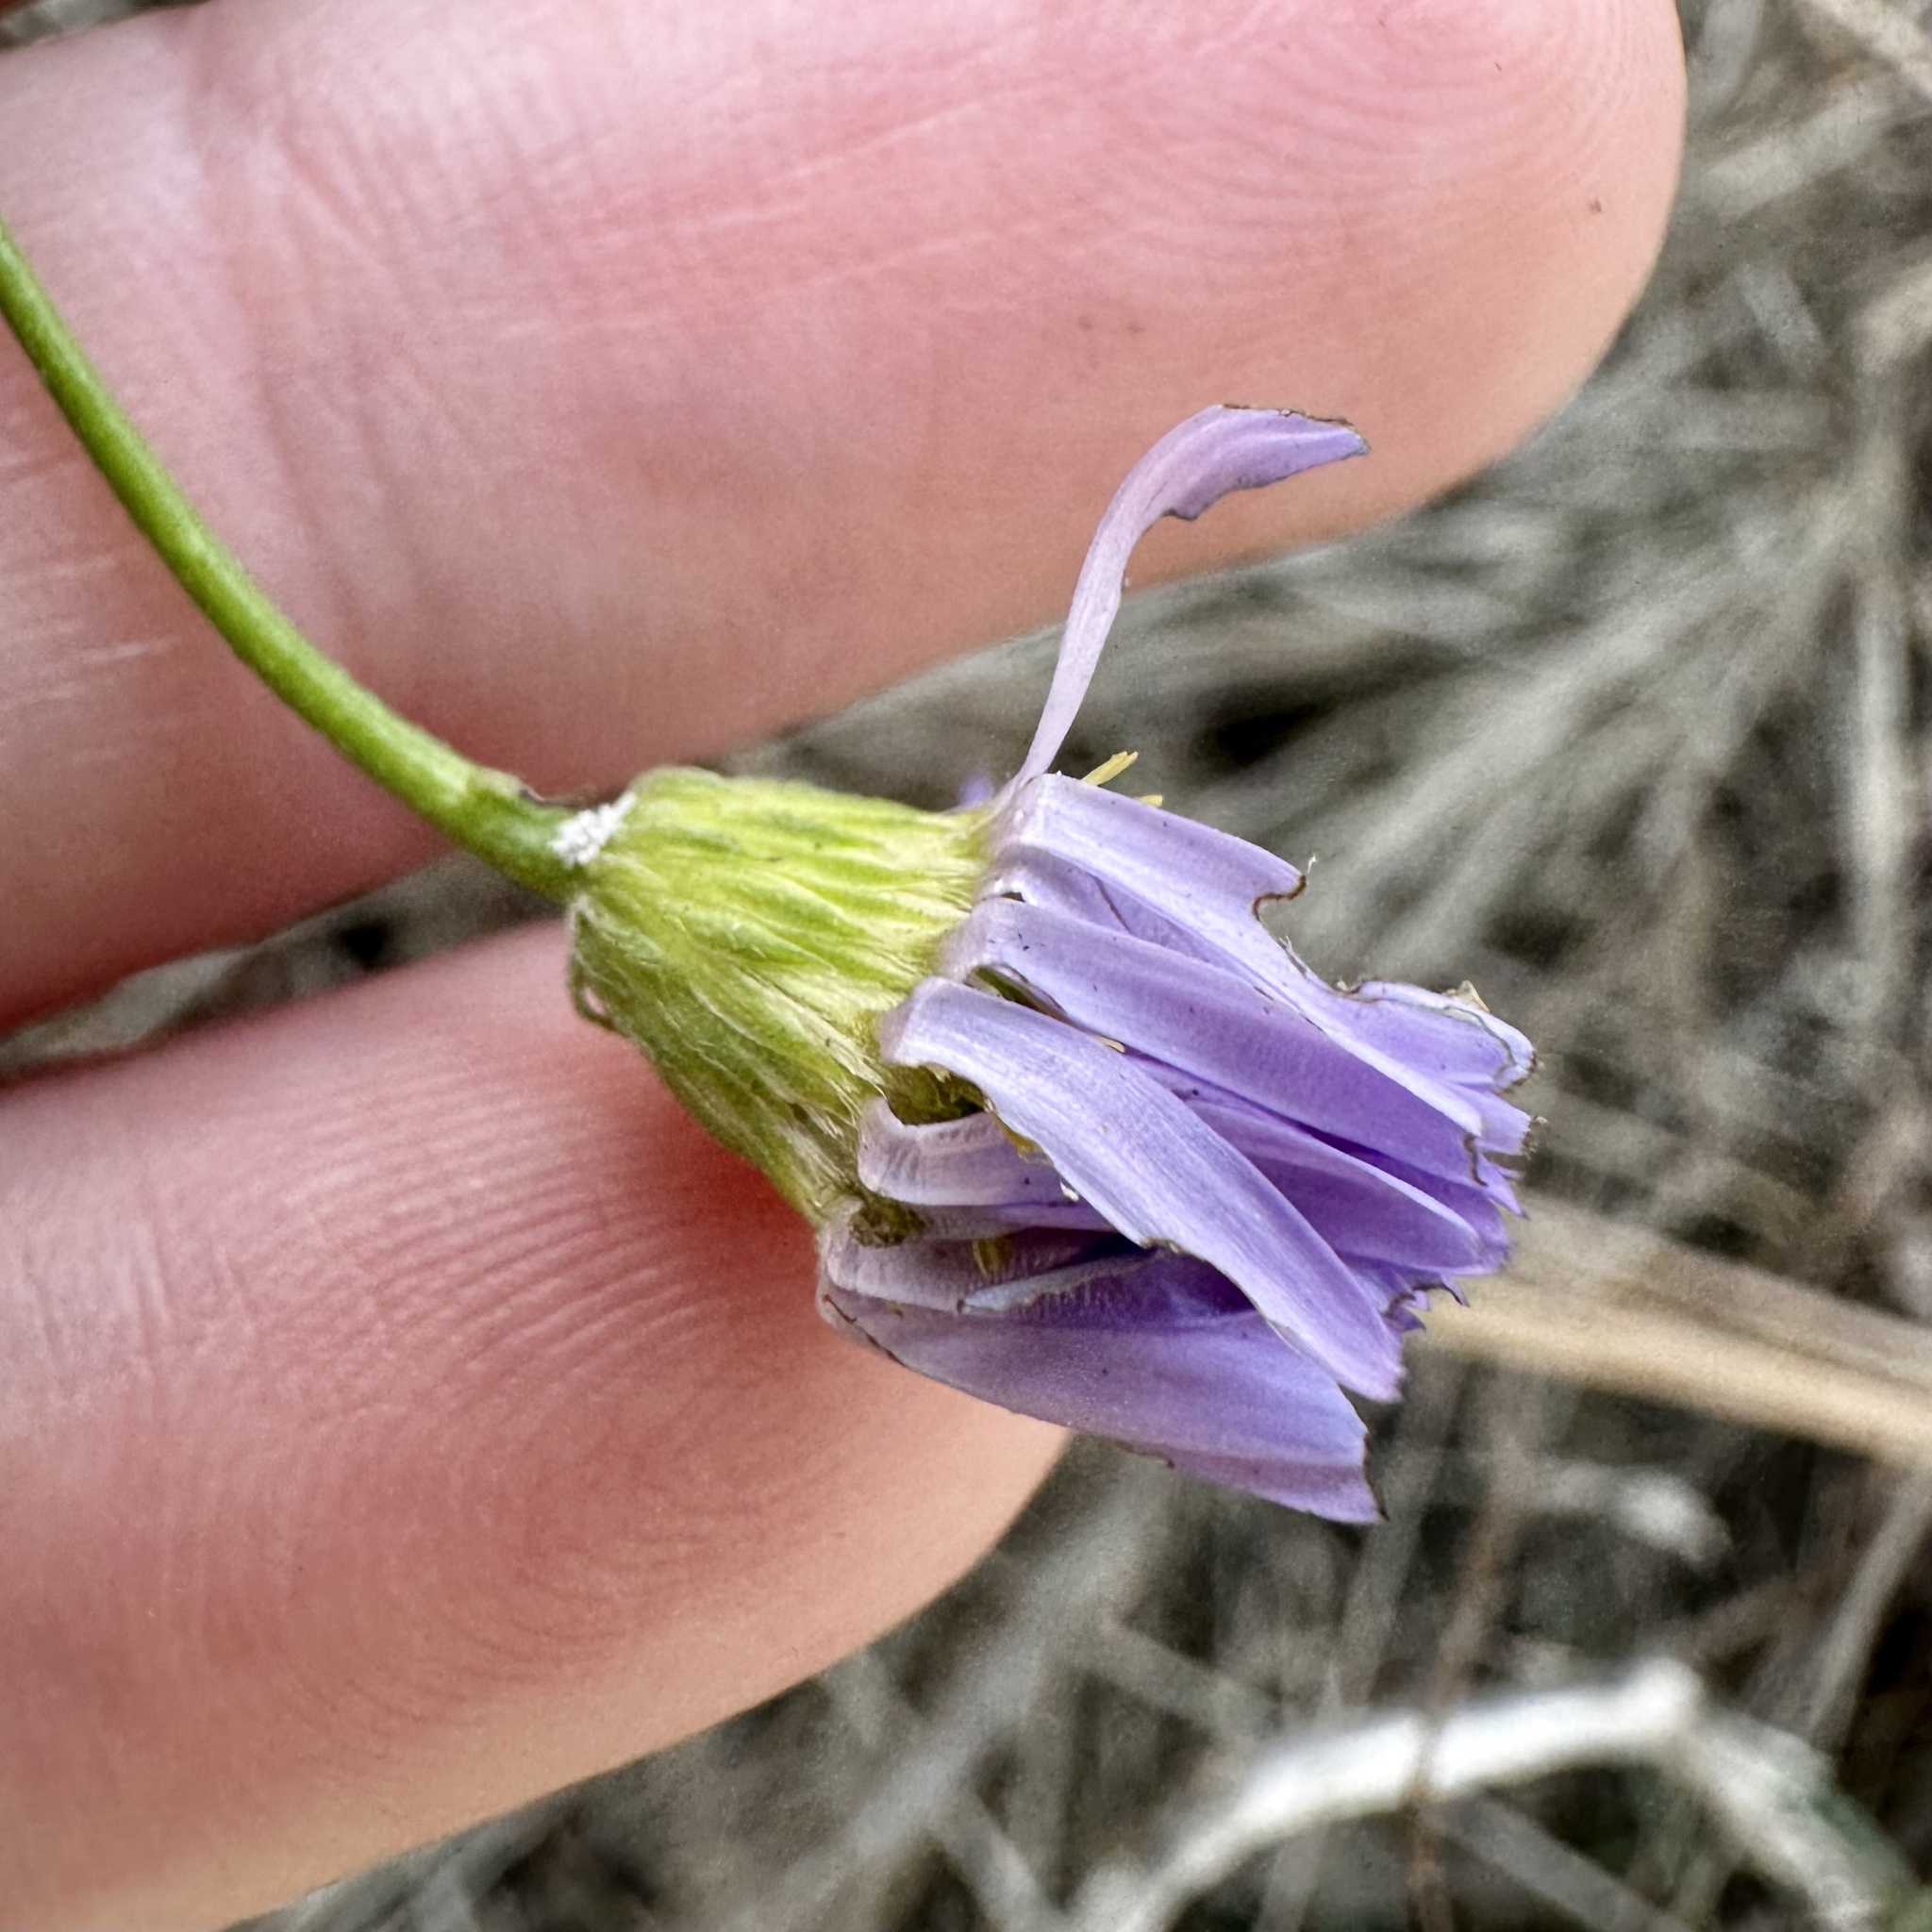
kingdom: Plantae
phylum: Tracheophyta
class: Magnoliopsida
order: Asterales
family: Asteraceae
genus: Erigeron
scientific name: Erigeron foliosus
